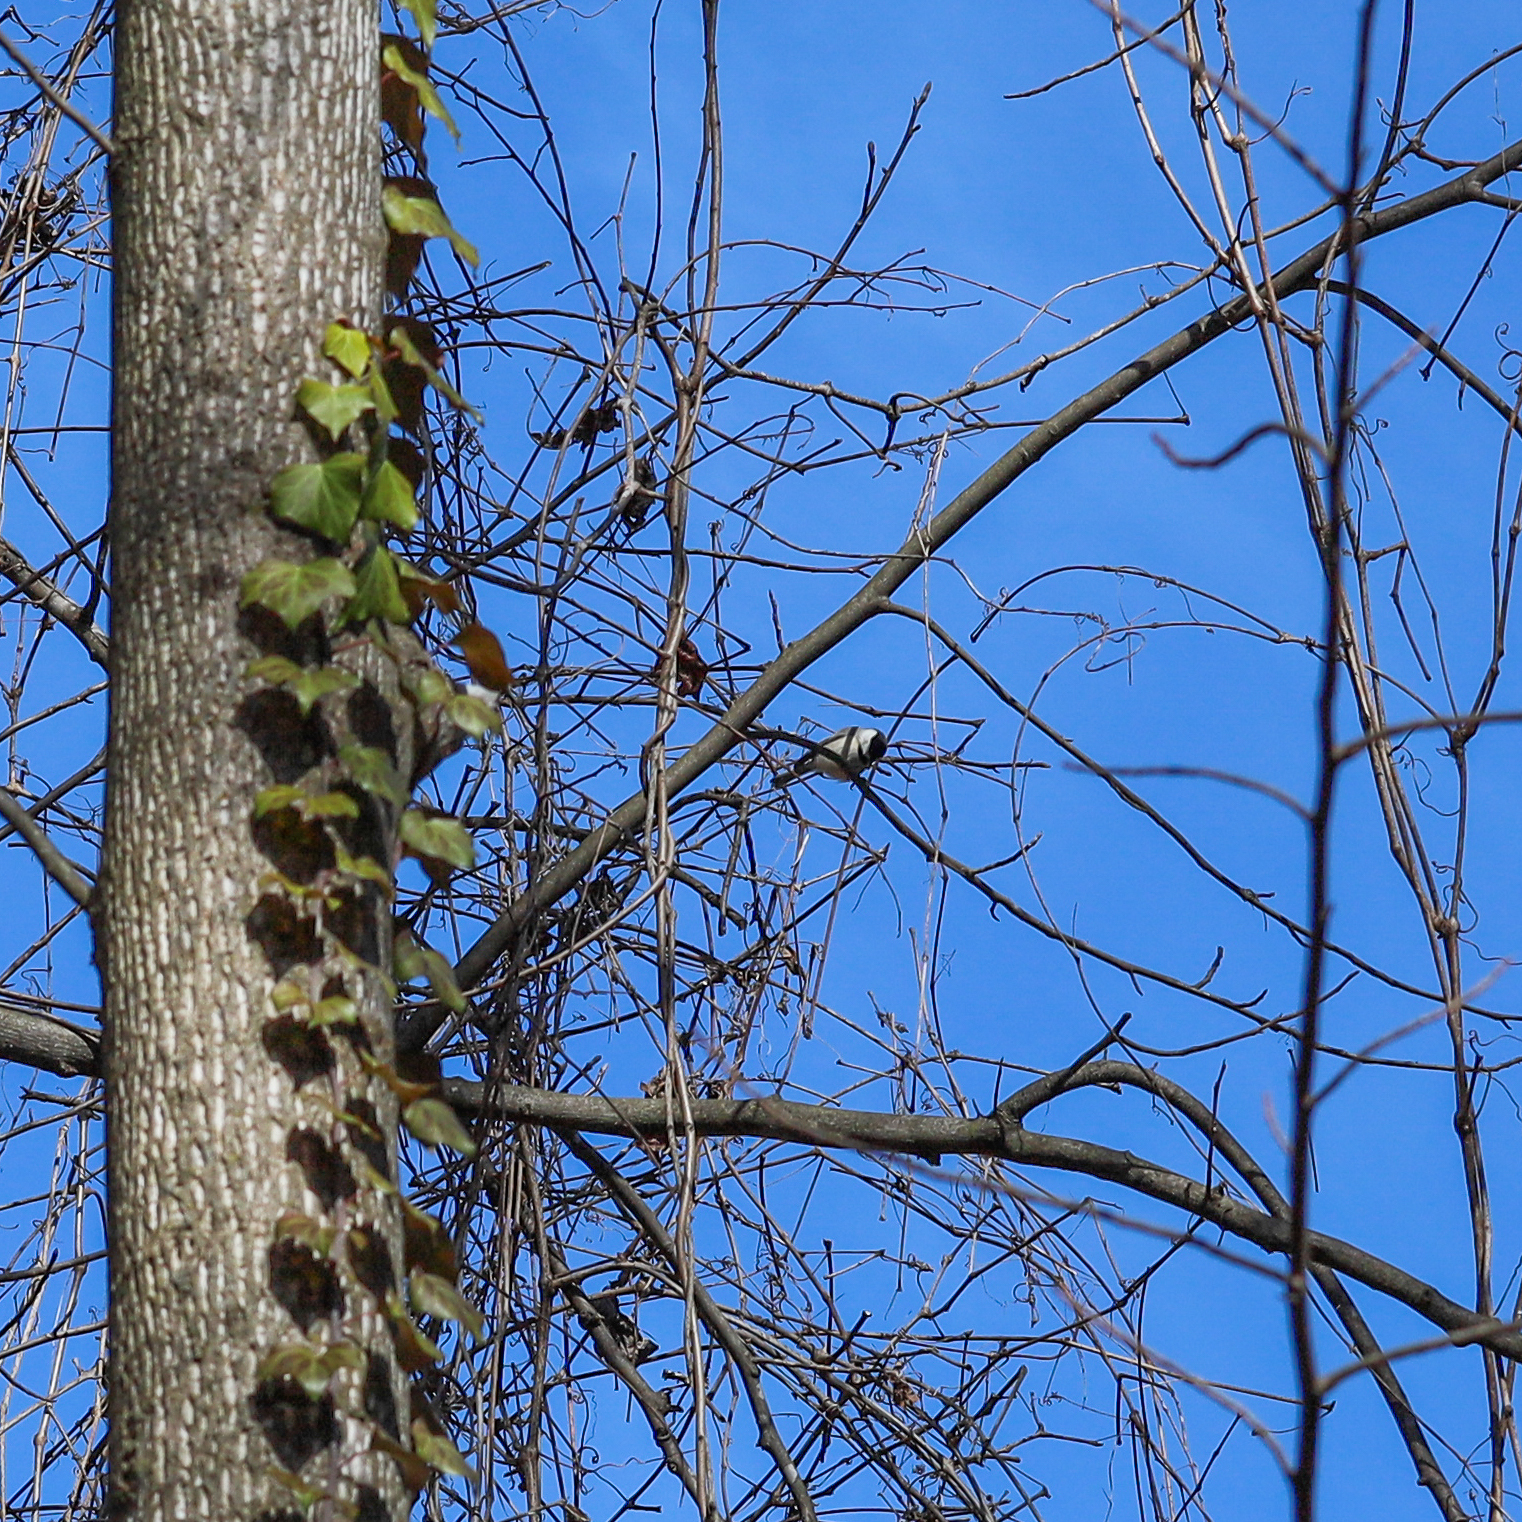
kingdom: Animalia
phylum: Chordata
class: Aves
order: Passeriformes
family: Paridae
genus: Poecile
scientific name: Poecile carolinensis
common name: Carolina chickadee
